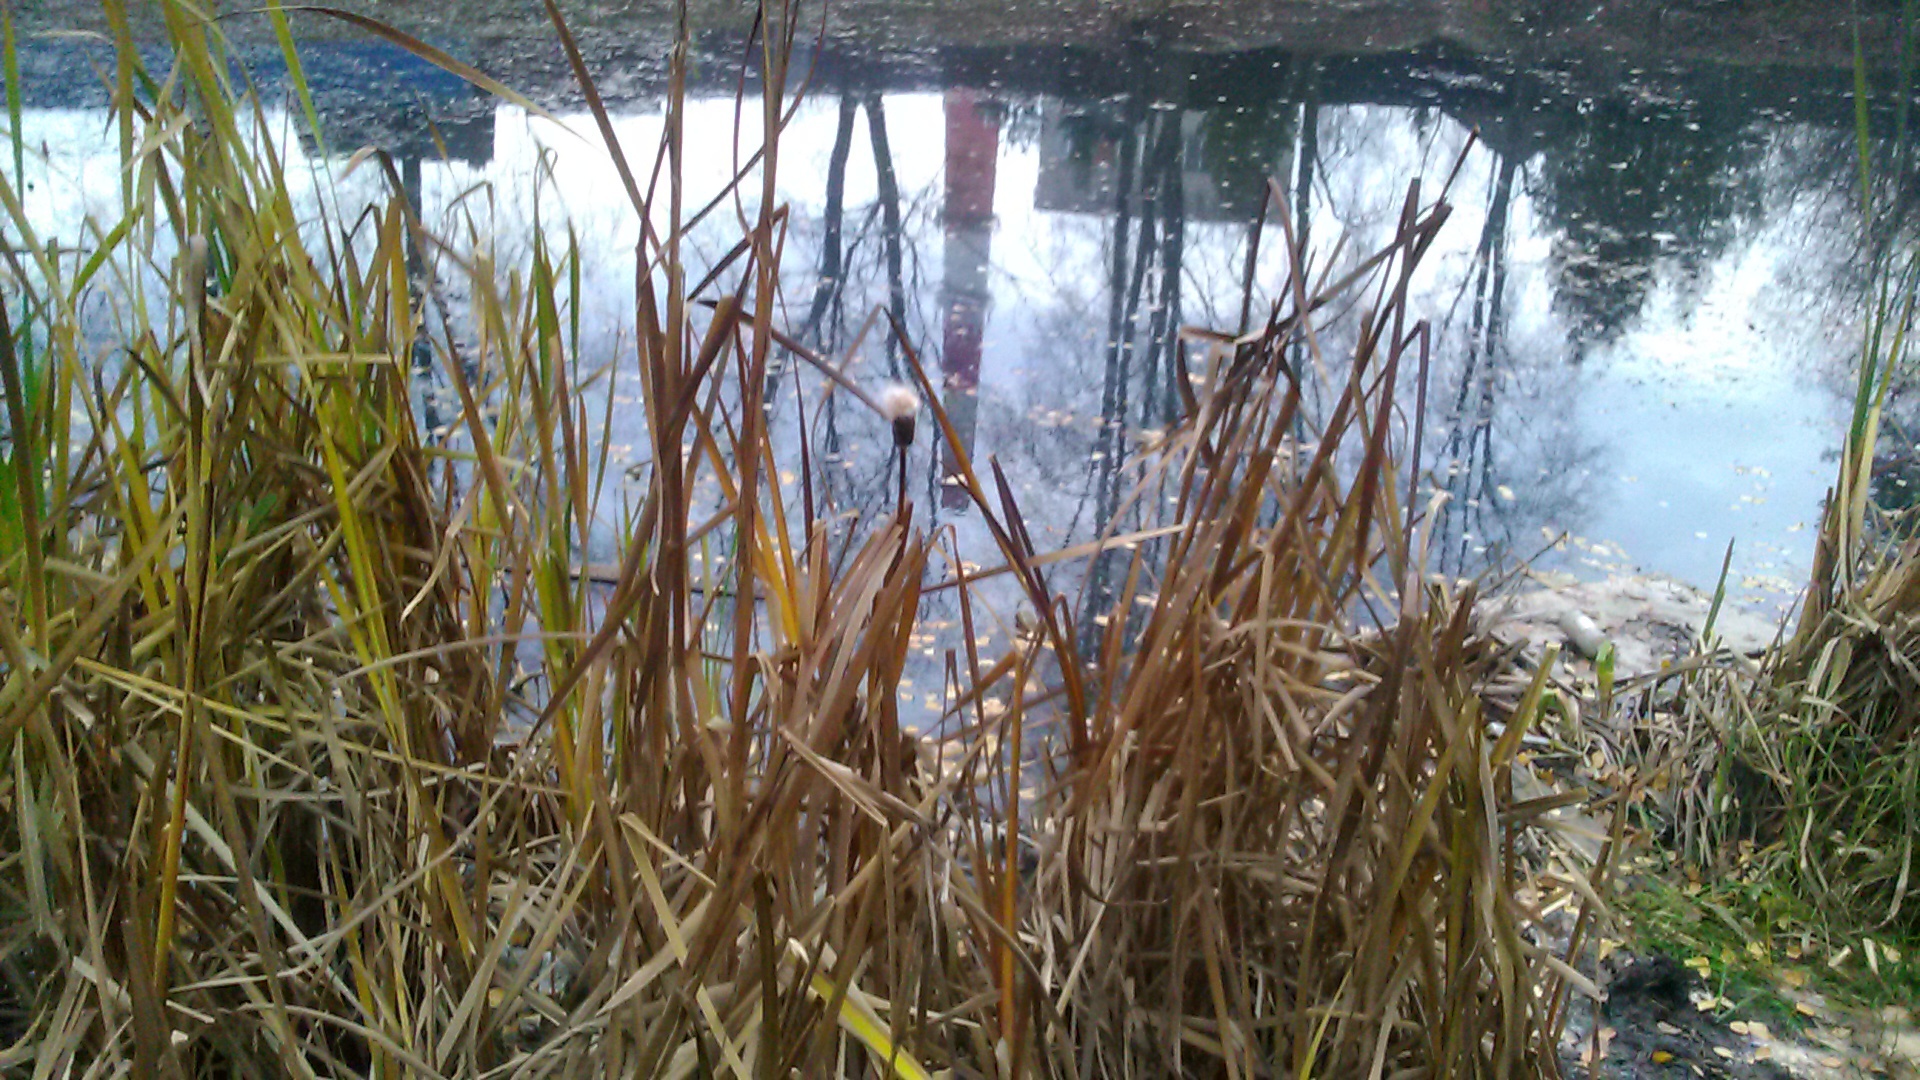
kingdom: Plantae
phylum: Tracheophyta
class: Liliopsida
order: Poales
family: Typhaceae
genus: Typha
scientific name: Typha latifolia
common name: Broadleaf cattail
